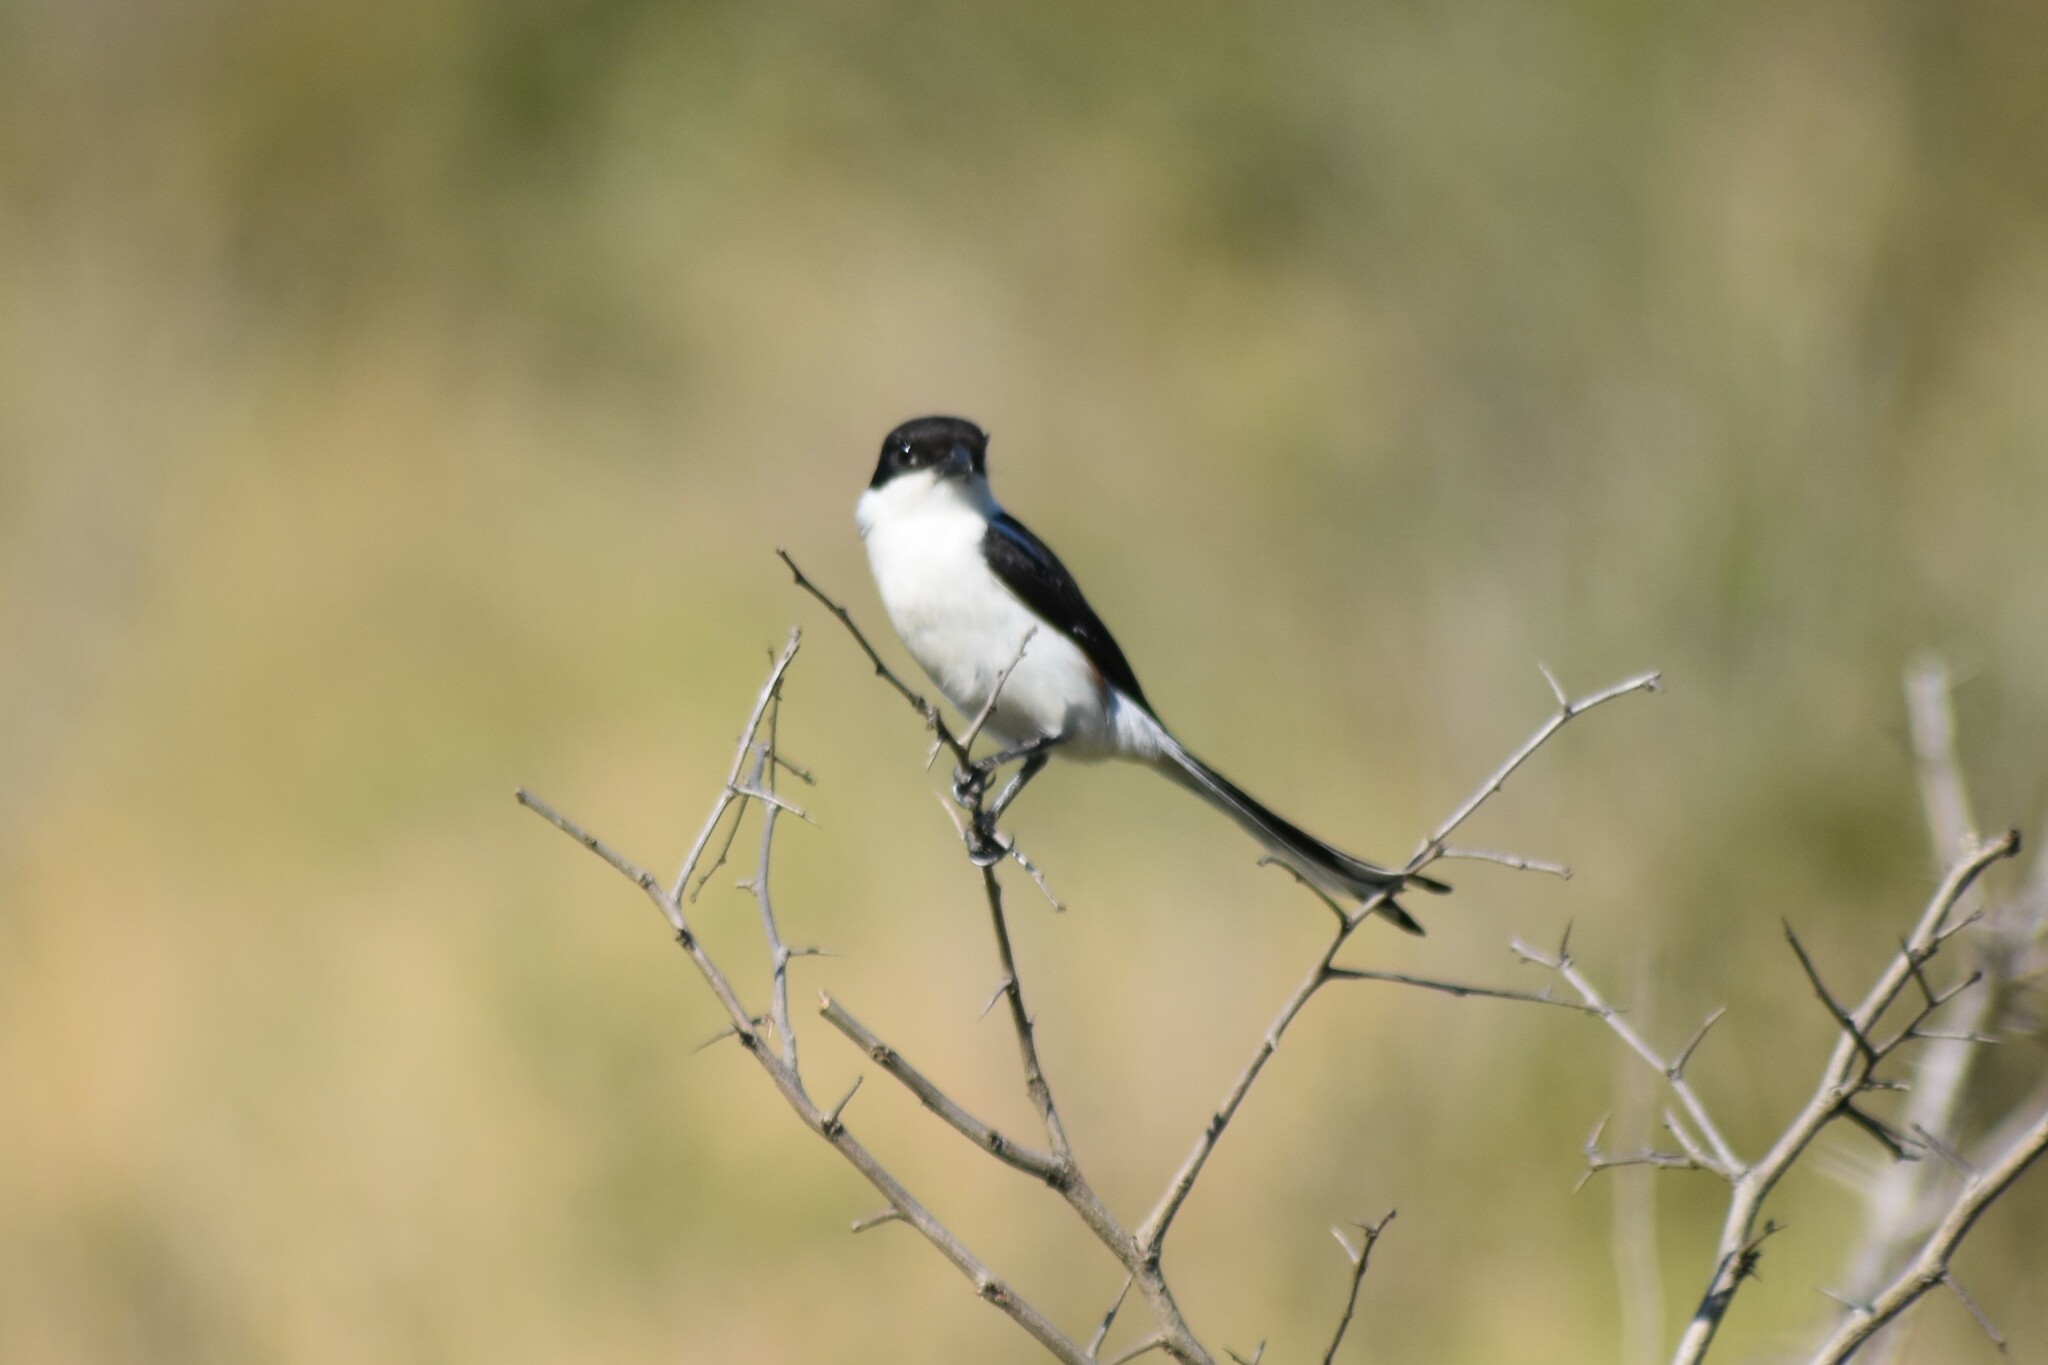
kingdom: Animalia
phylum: Chordata
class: Aves
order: Passeriformes
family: Laniidae
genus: Lanius
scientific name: Lanius collaris
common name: Southern fiscal
